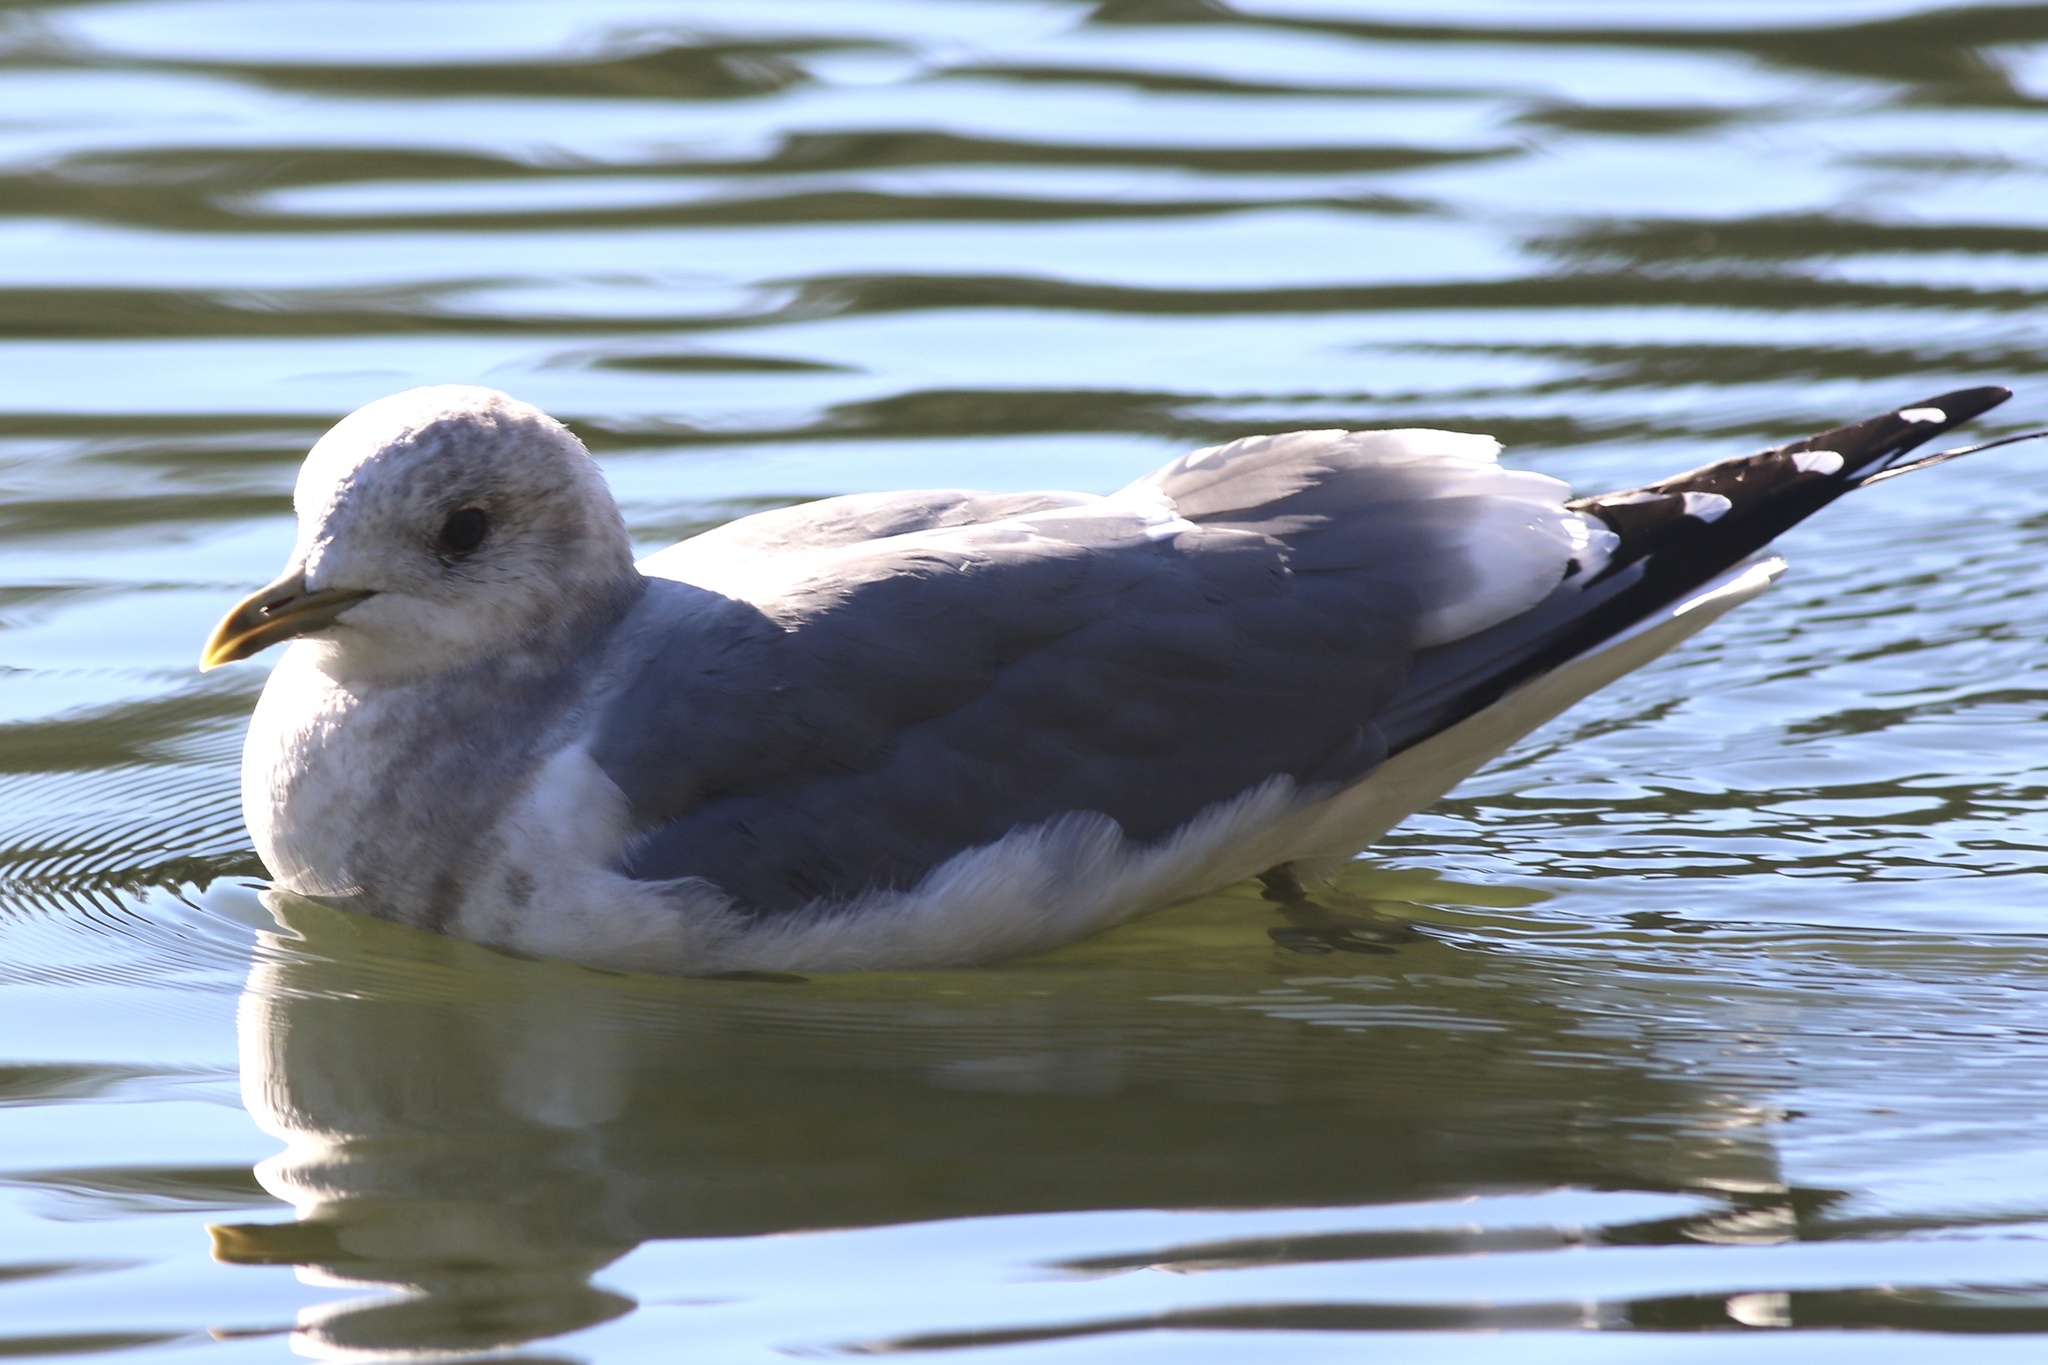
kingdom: Animalia
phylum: Chordata
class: Aves
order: Charadriiformes
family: Laridae
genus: Larus
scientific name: Larus brachyrhynchus
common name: Short-billed gull
